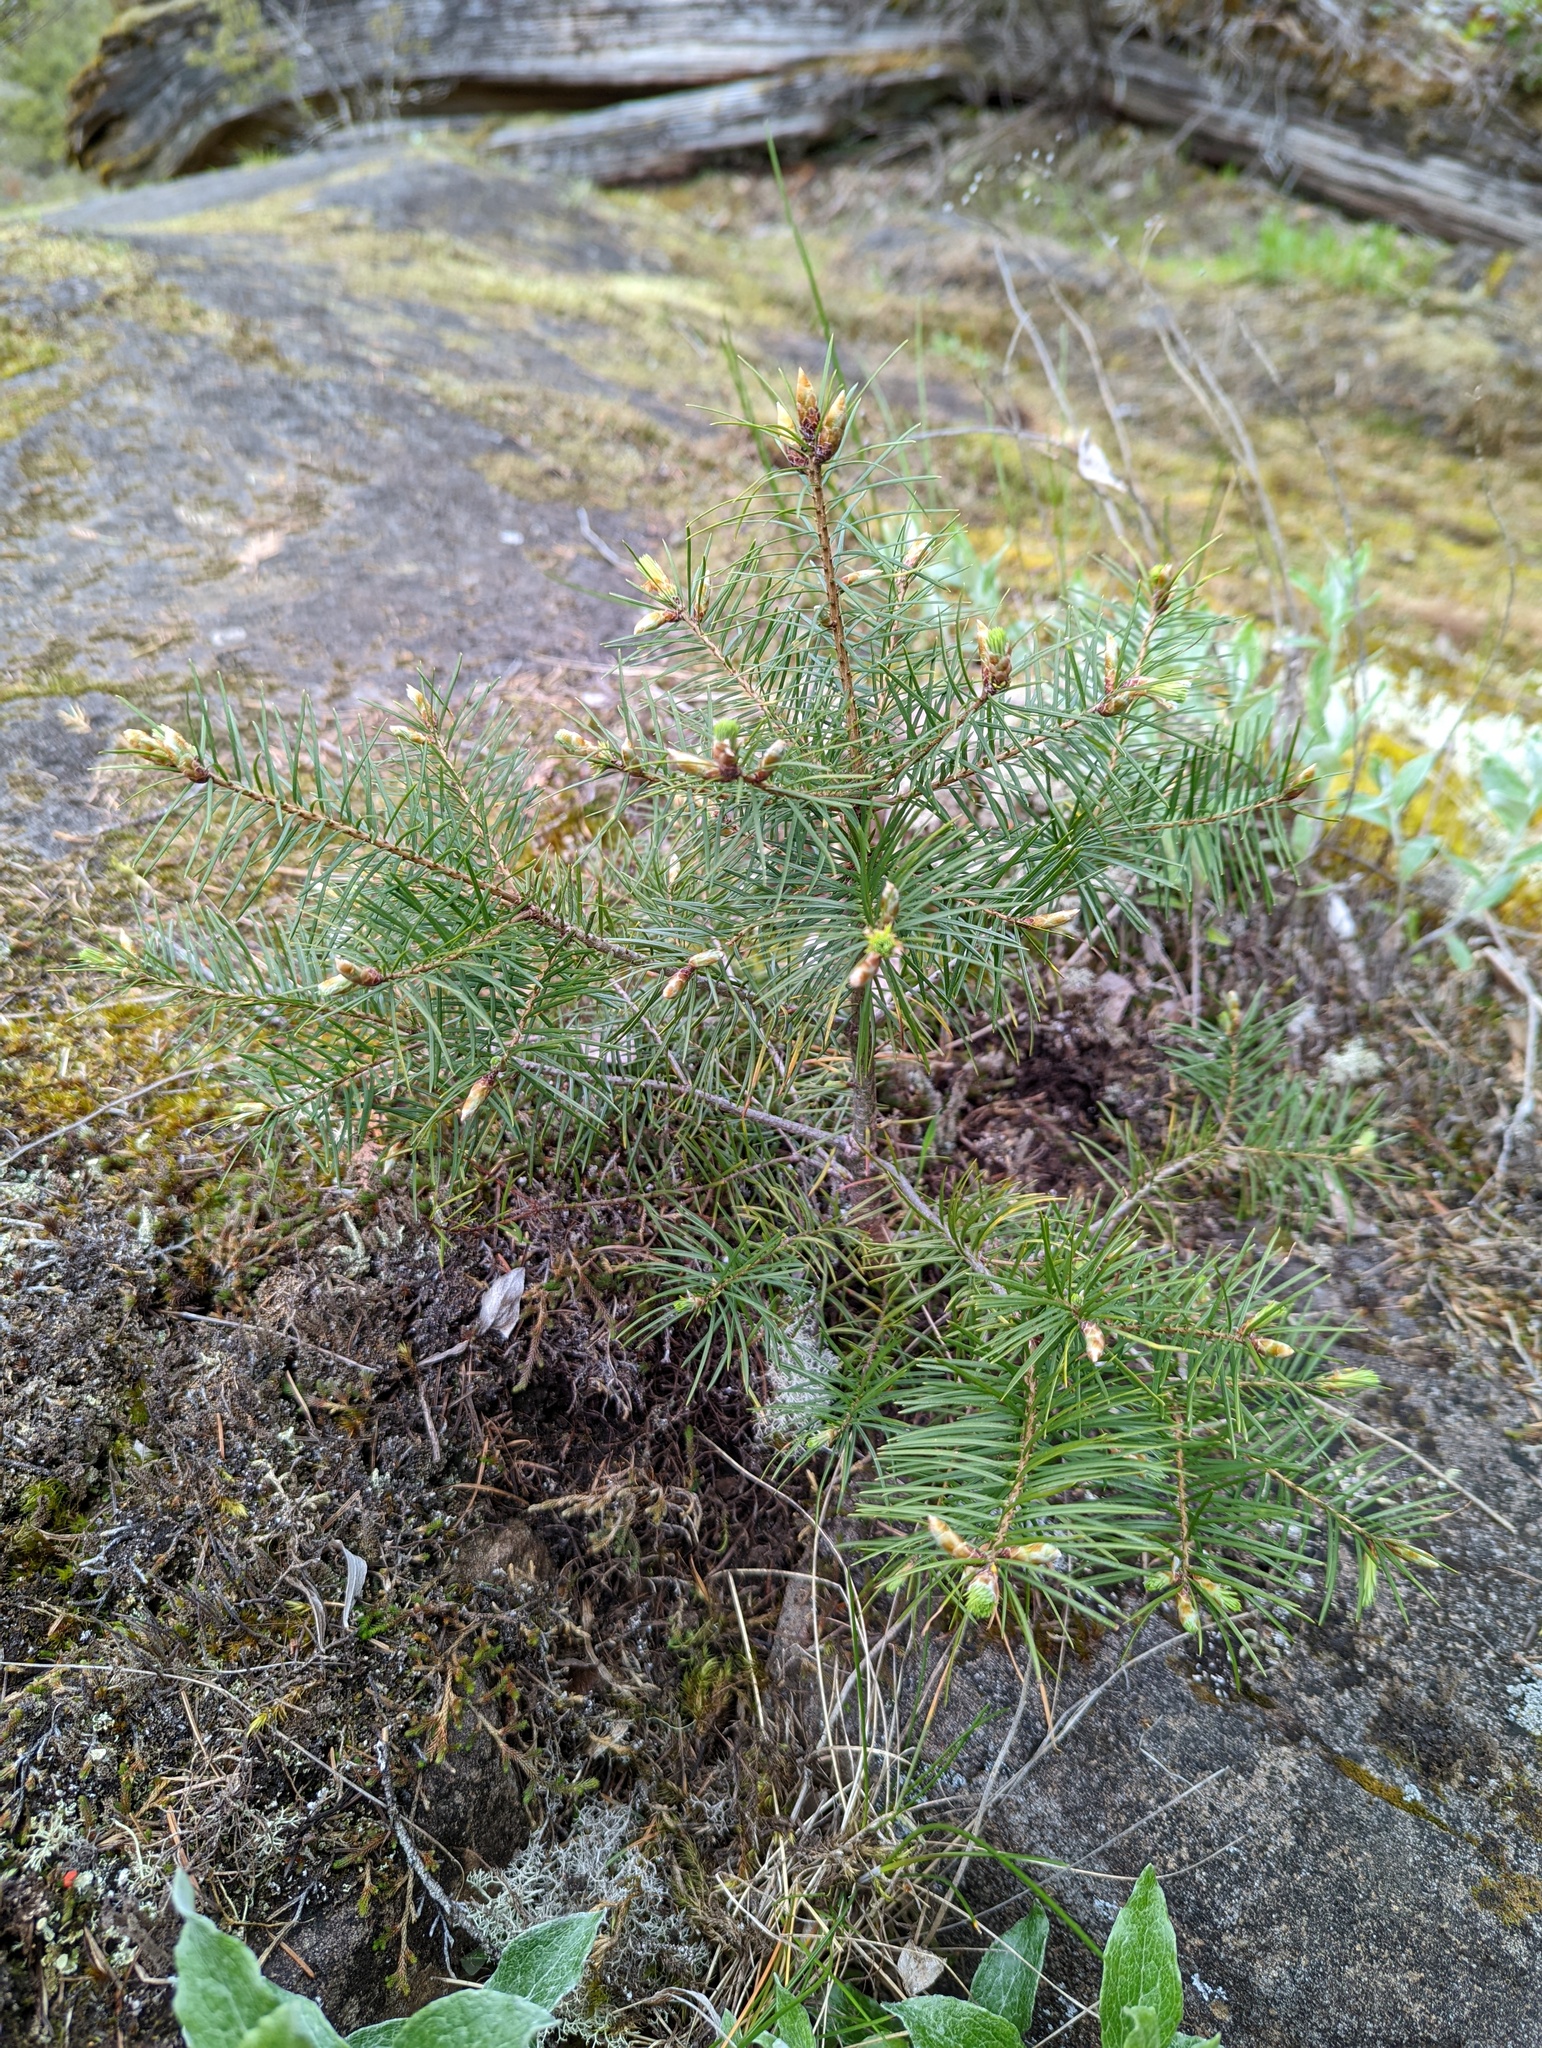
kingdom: Plantae
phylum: Tracheophyta
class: Pinopsida
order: Pinales
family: Pinaceae
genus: Pseudotsuga
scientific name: Pseudotsuga menziesii
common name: Douglas fir
